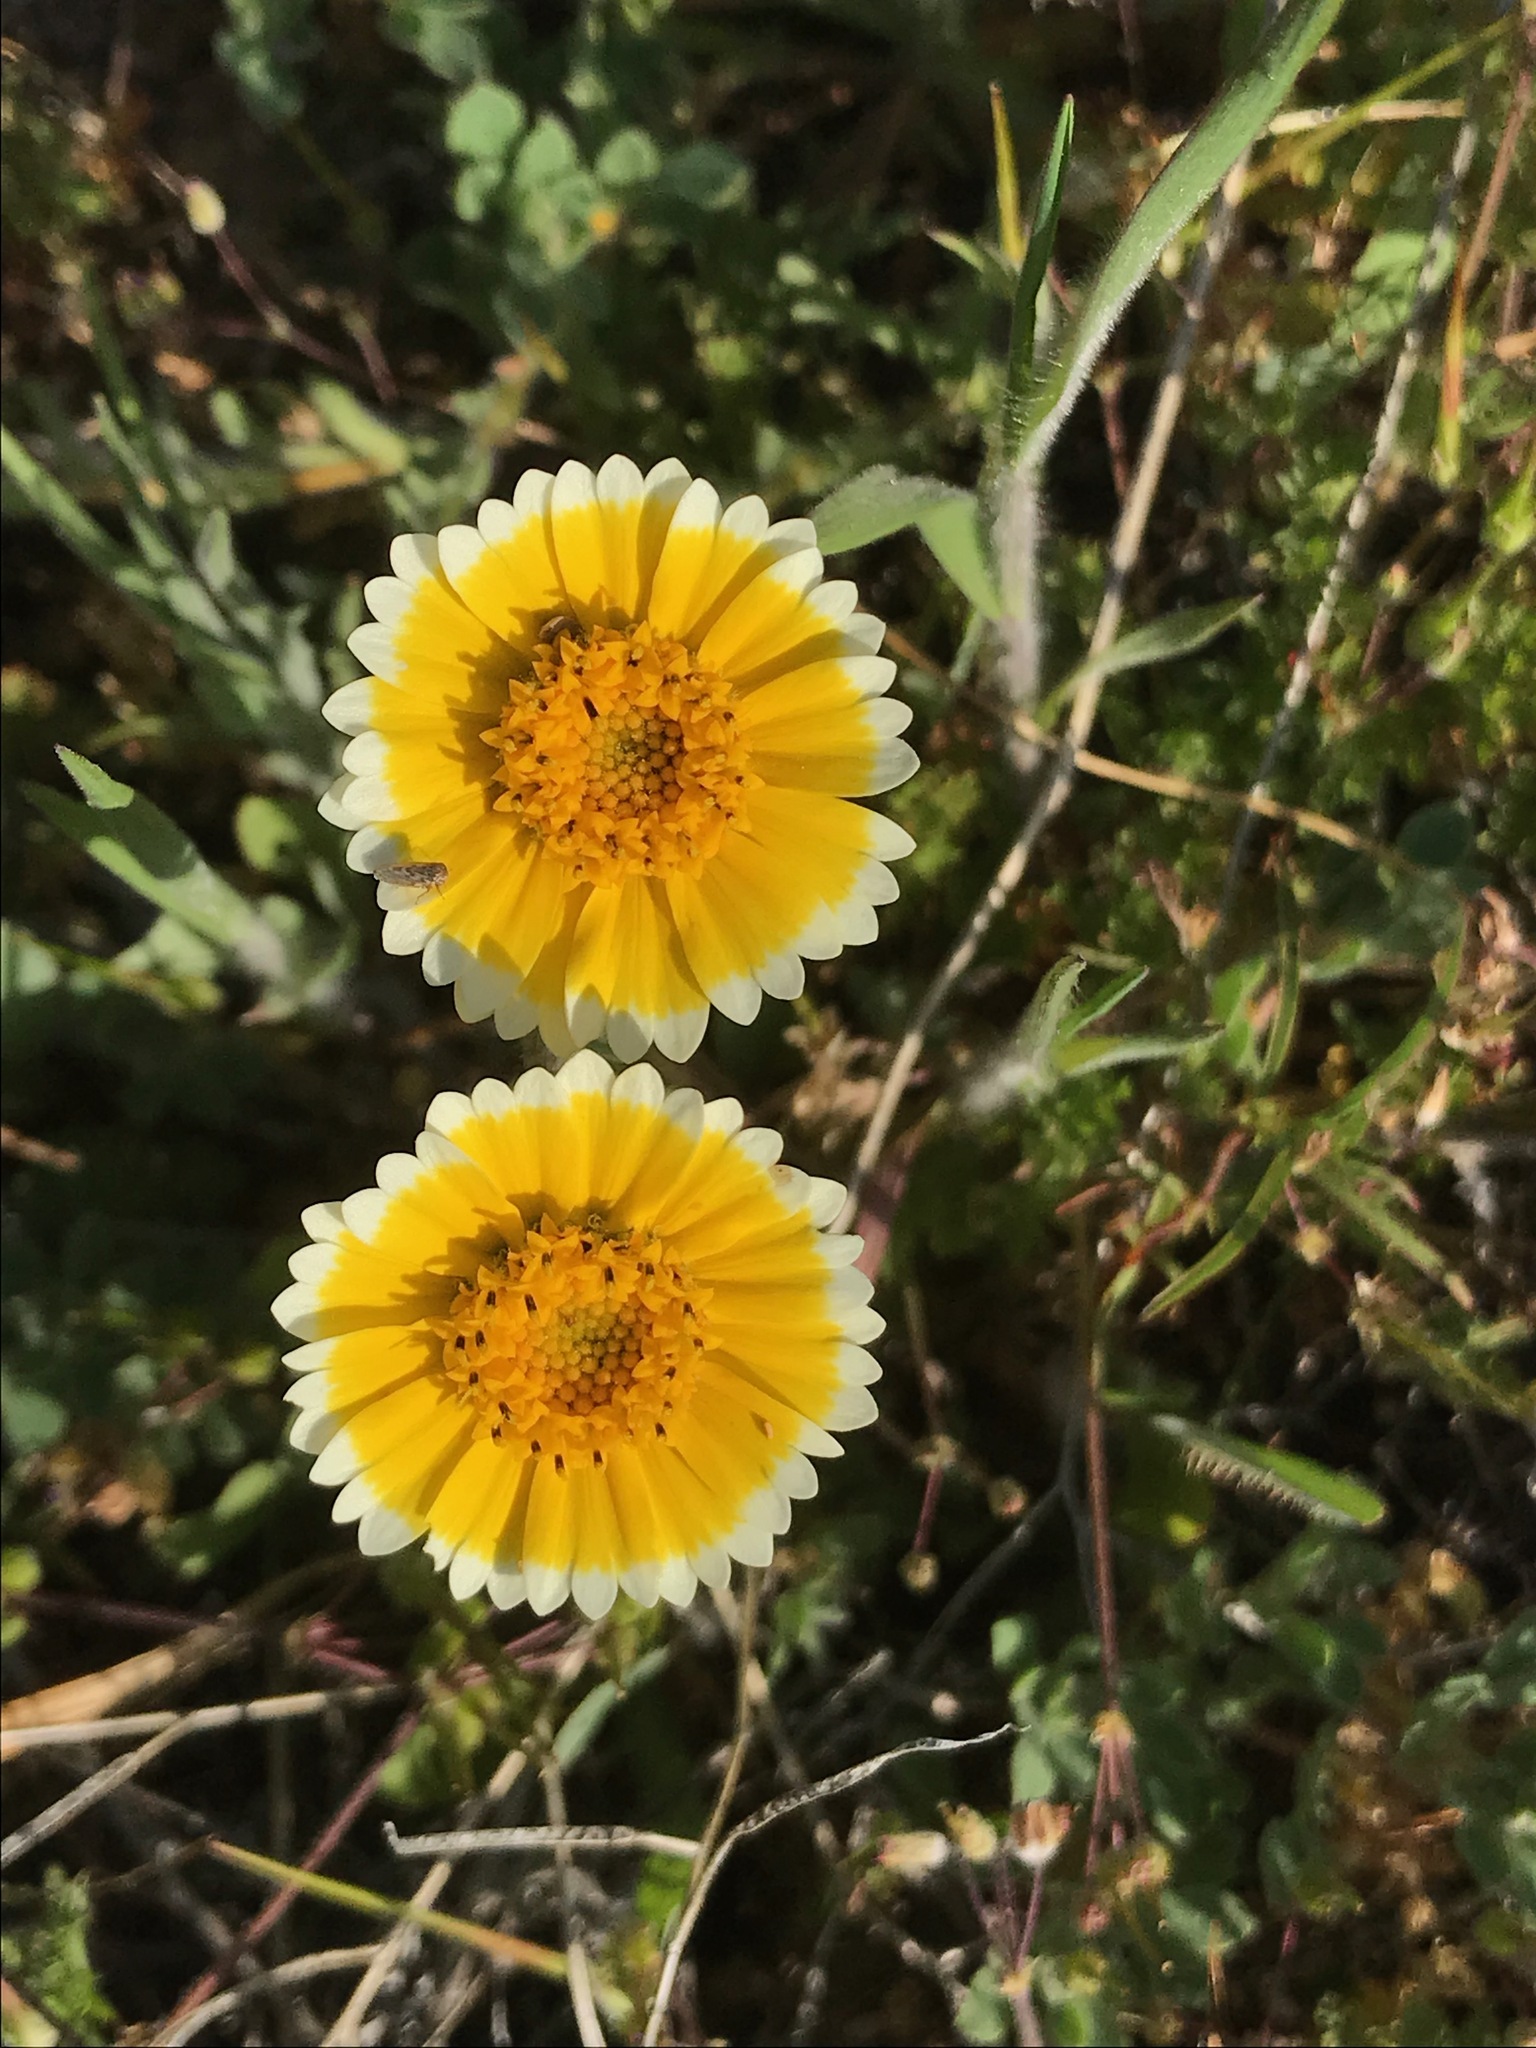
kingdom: Plantae
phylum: Tracheophyta
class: Magnoliopsida
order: Asterales
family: Asteraceae
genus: Layia
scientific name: Layia platyglossa
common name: Tidy-tips
